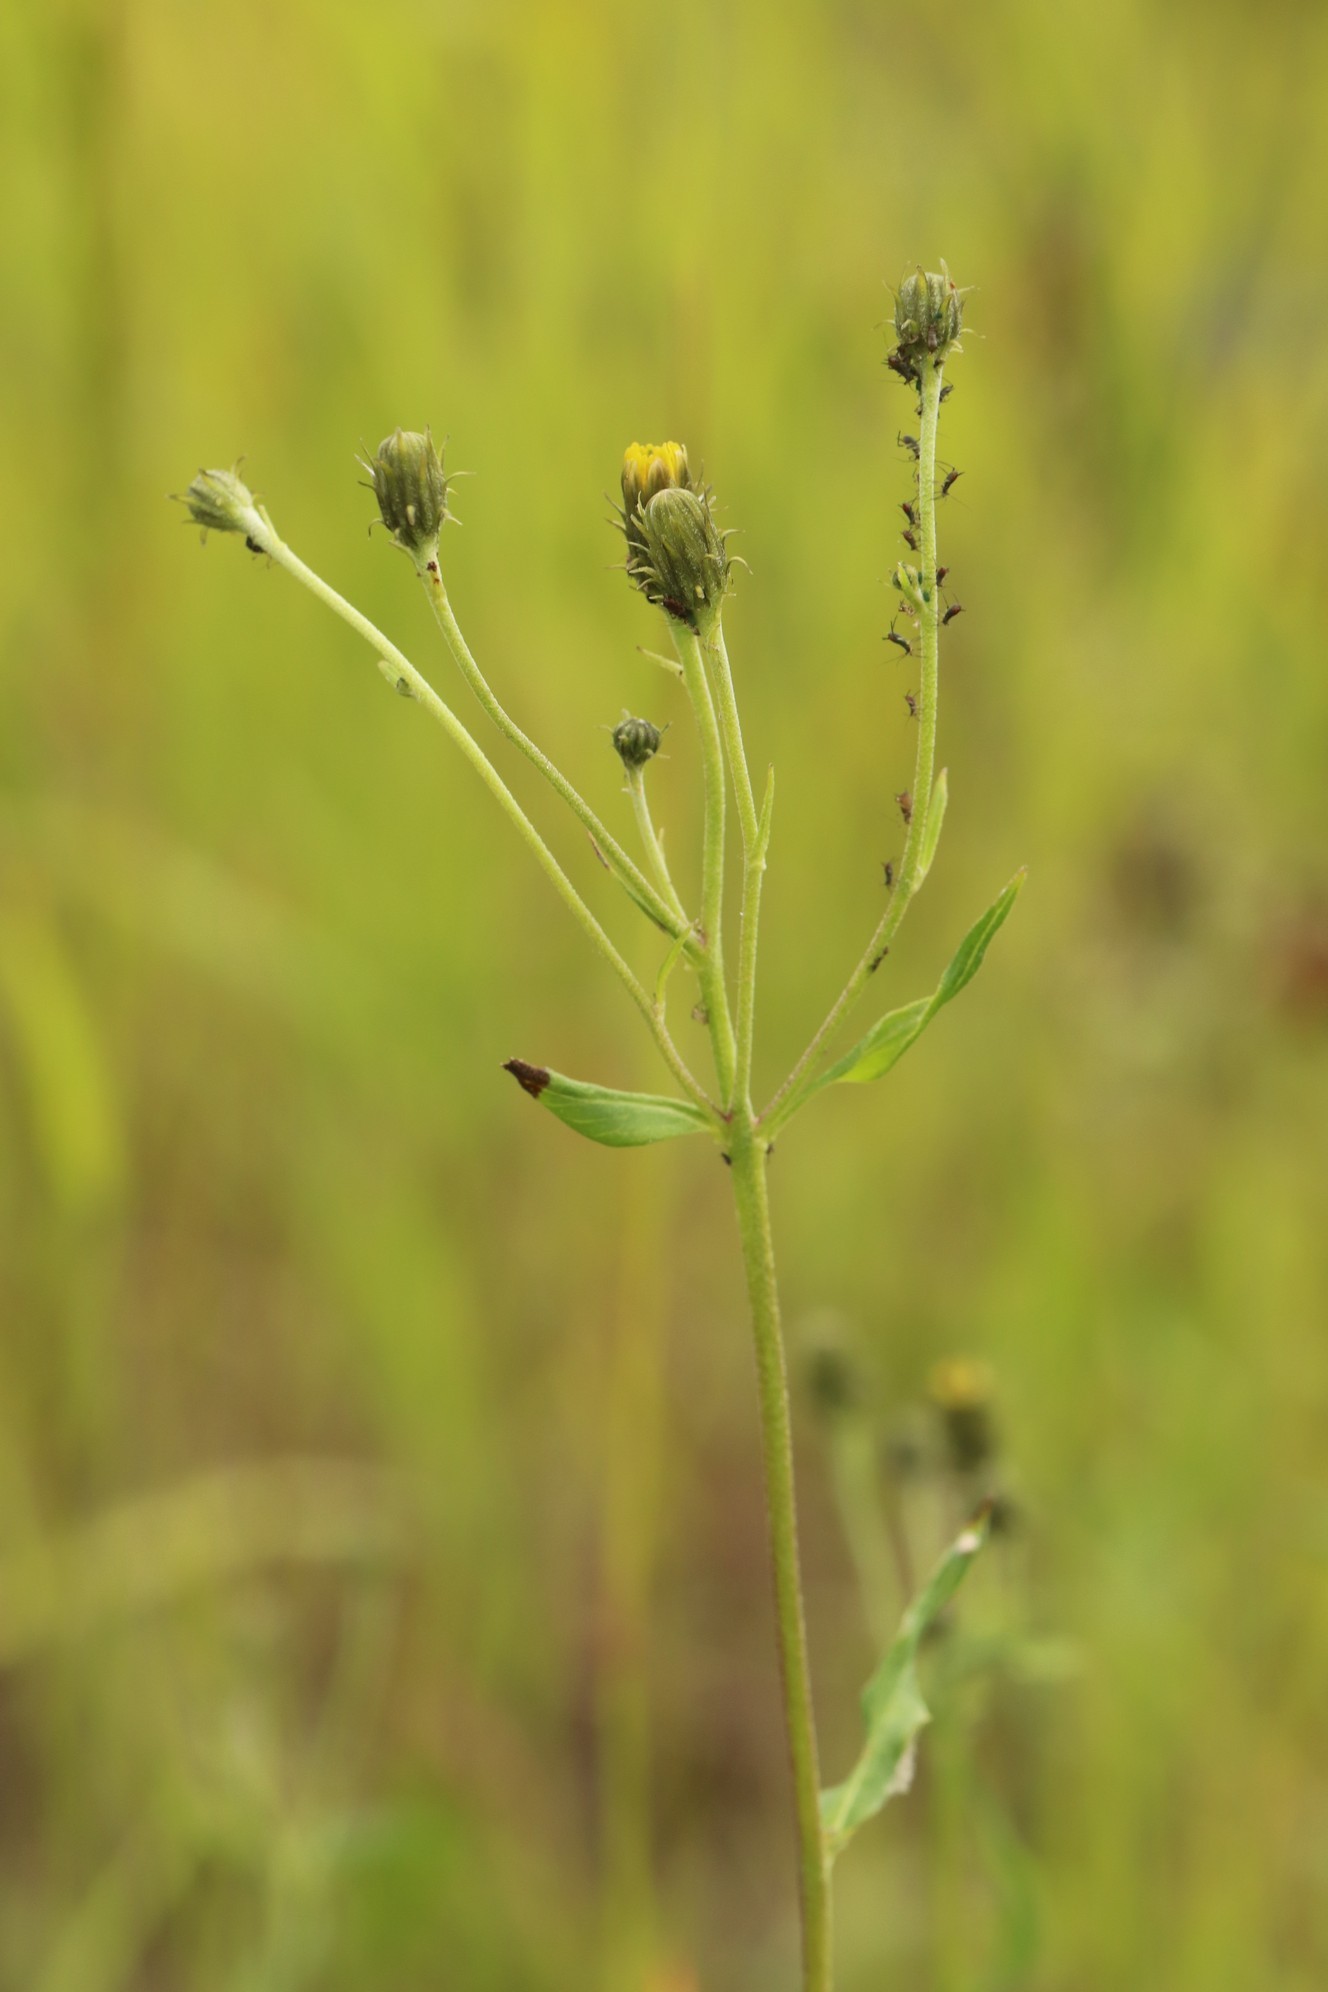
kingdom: Plantae
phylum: Tracheophyta
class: Magnoliopsida
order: Asterales
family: Asteraceae
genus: Hieracium
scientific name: Hieracium umbellatum
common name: Northern hawkweed
